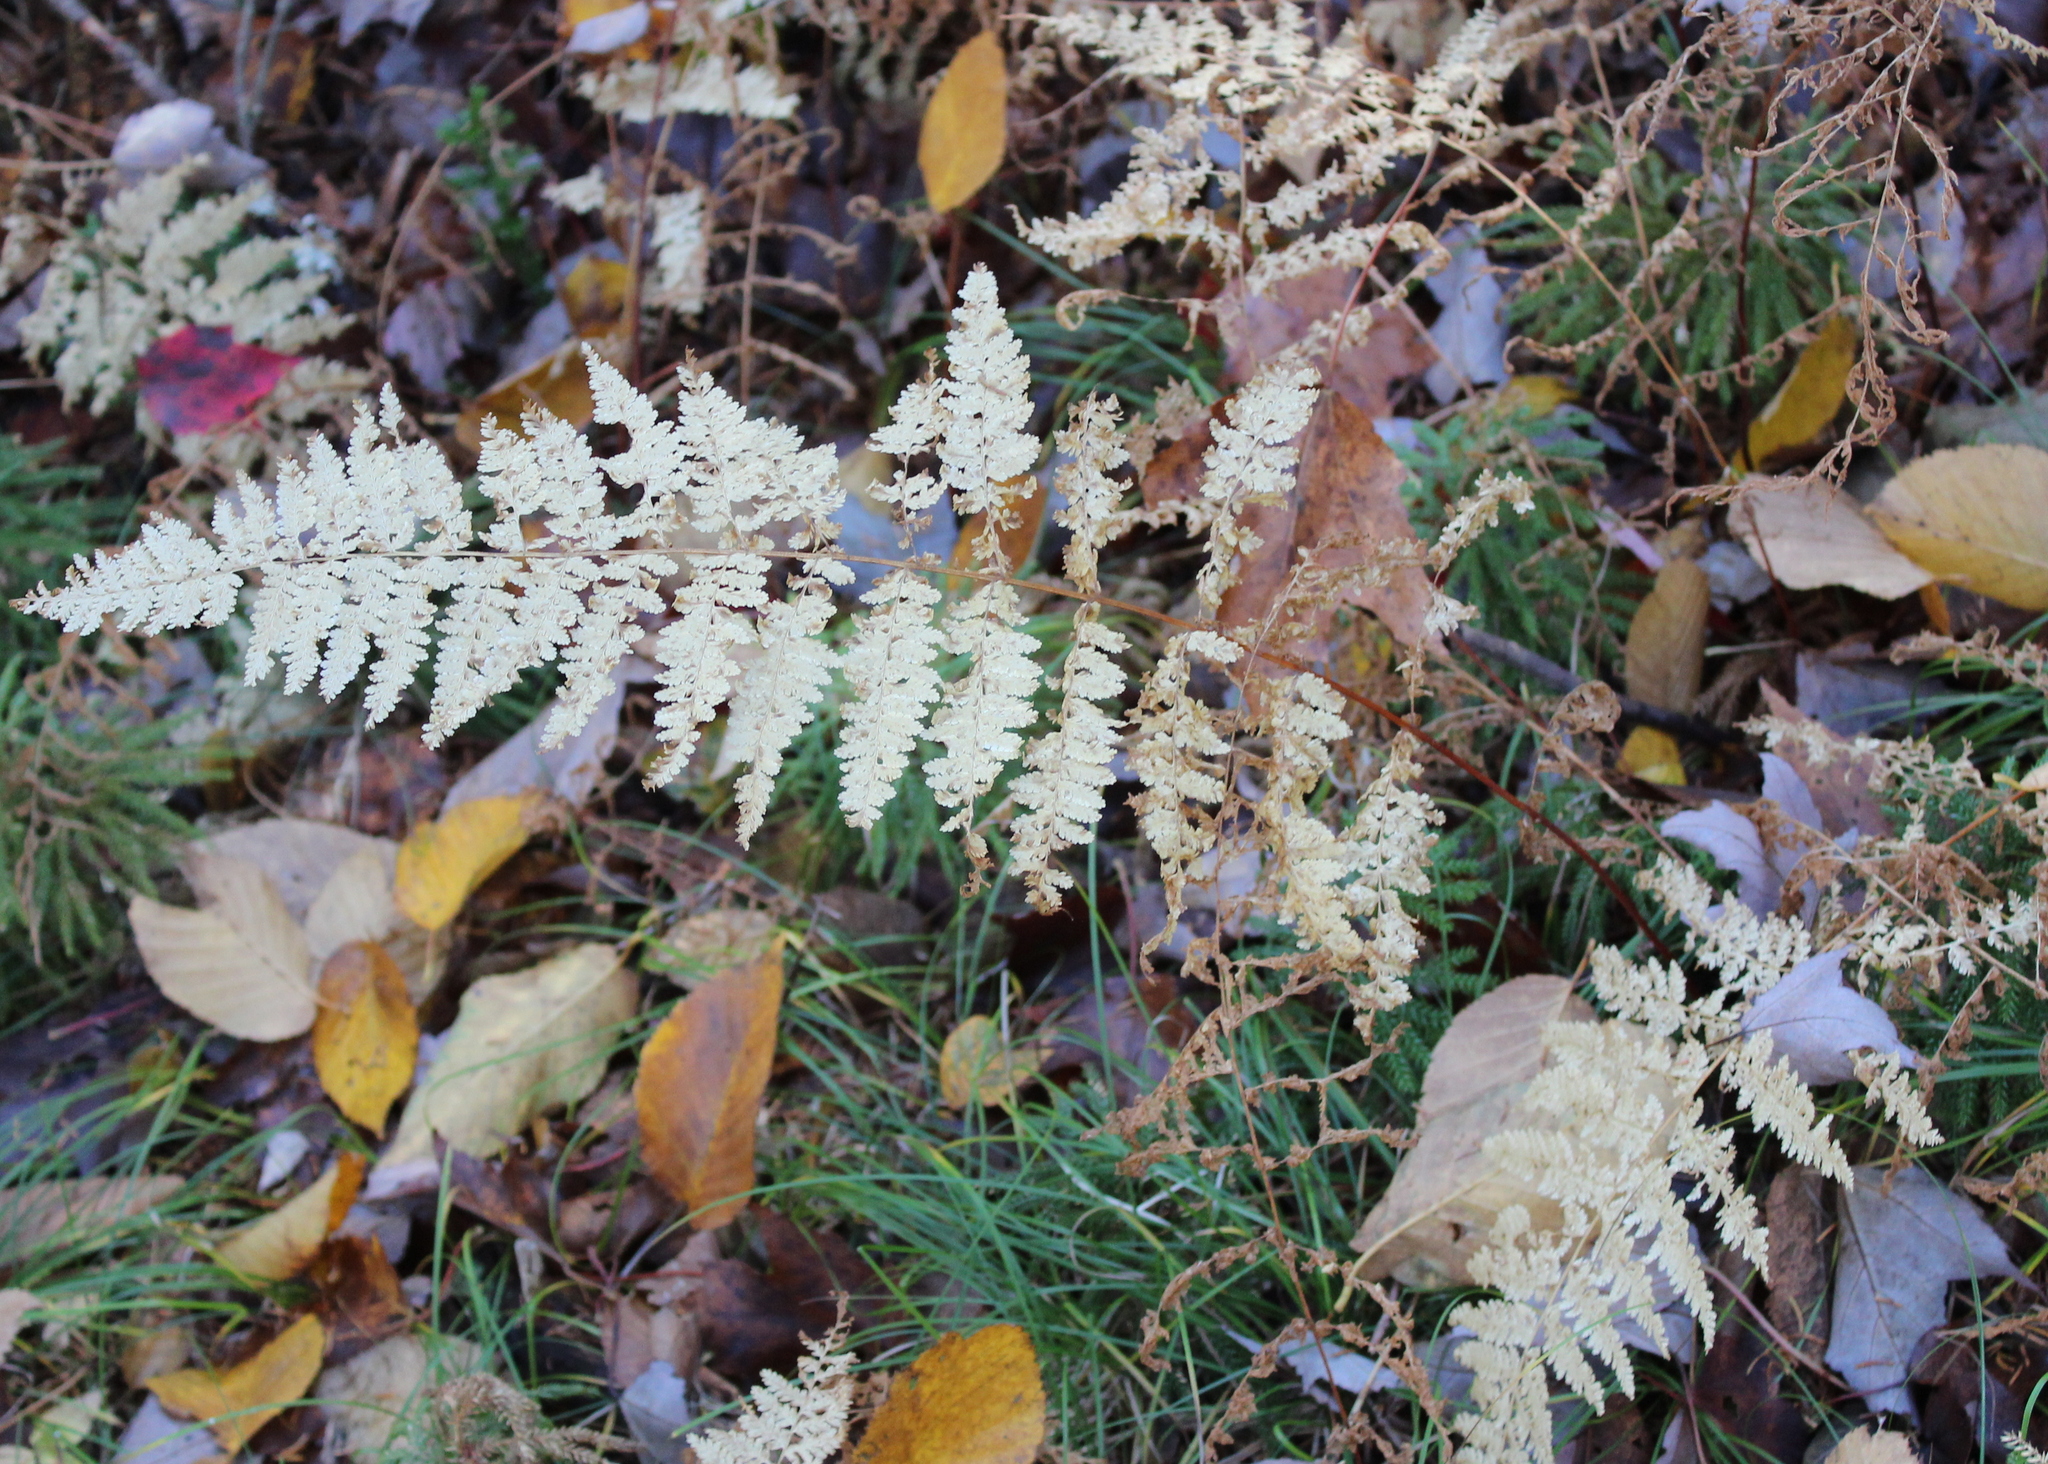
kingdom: Plantae
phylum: Tracheophyta
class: Polypodiopsida
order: Polypodiales
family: Dennstaedtiaceae
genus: Sitobolium
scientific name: Sitobolium punctilobum
